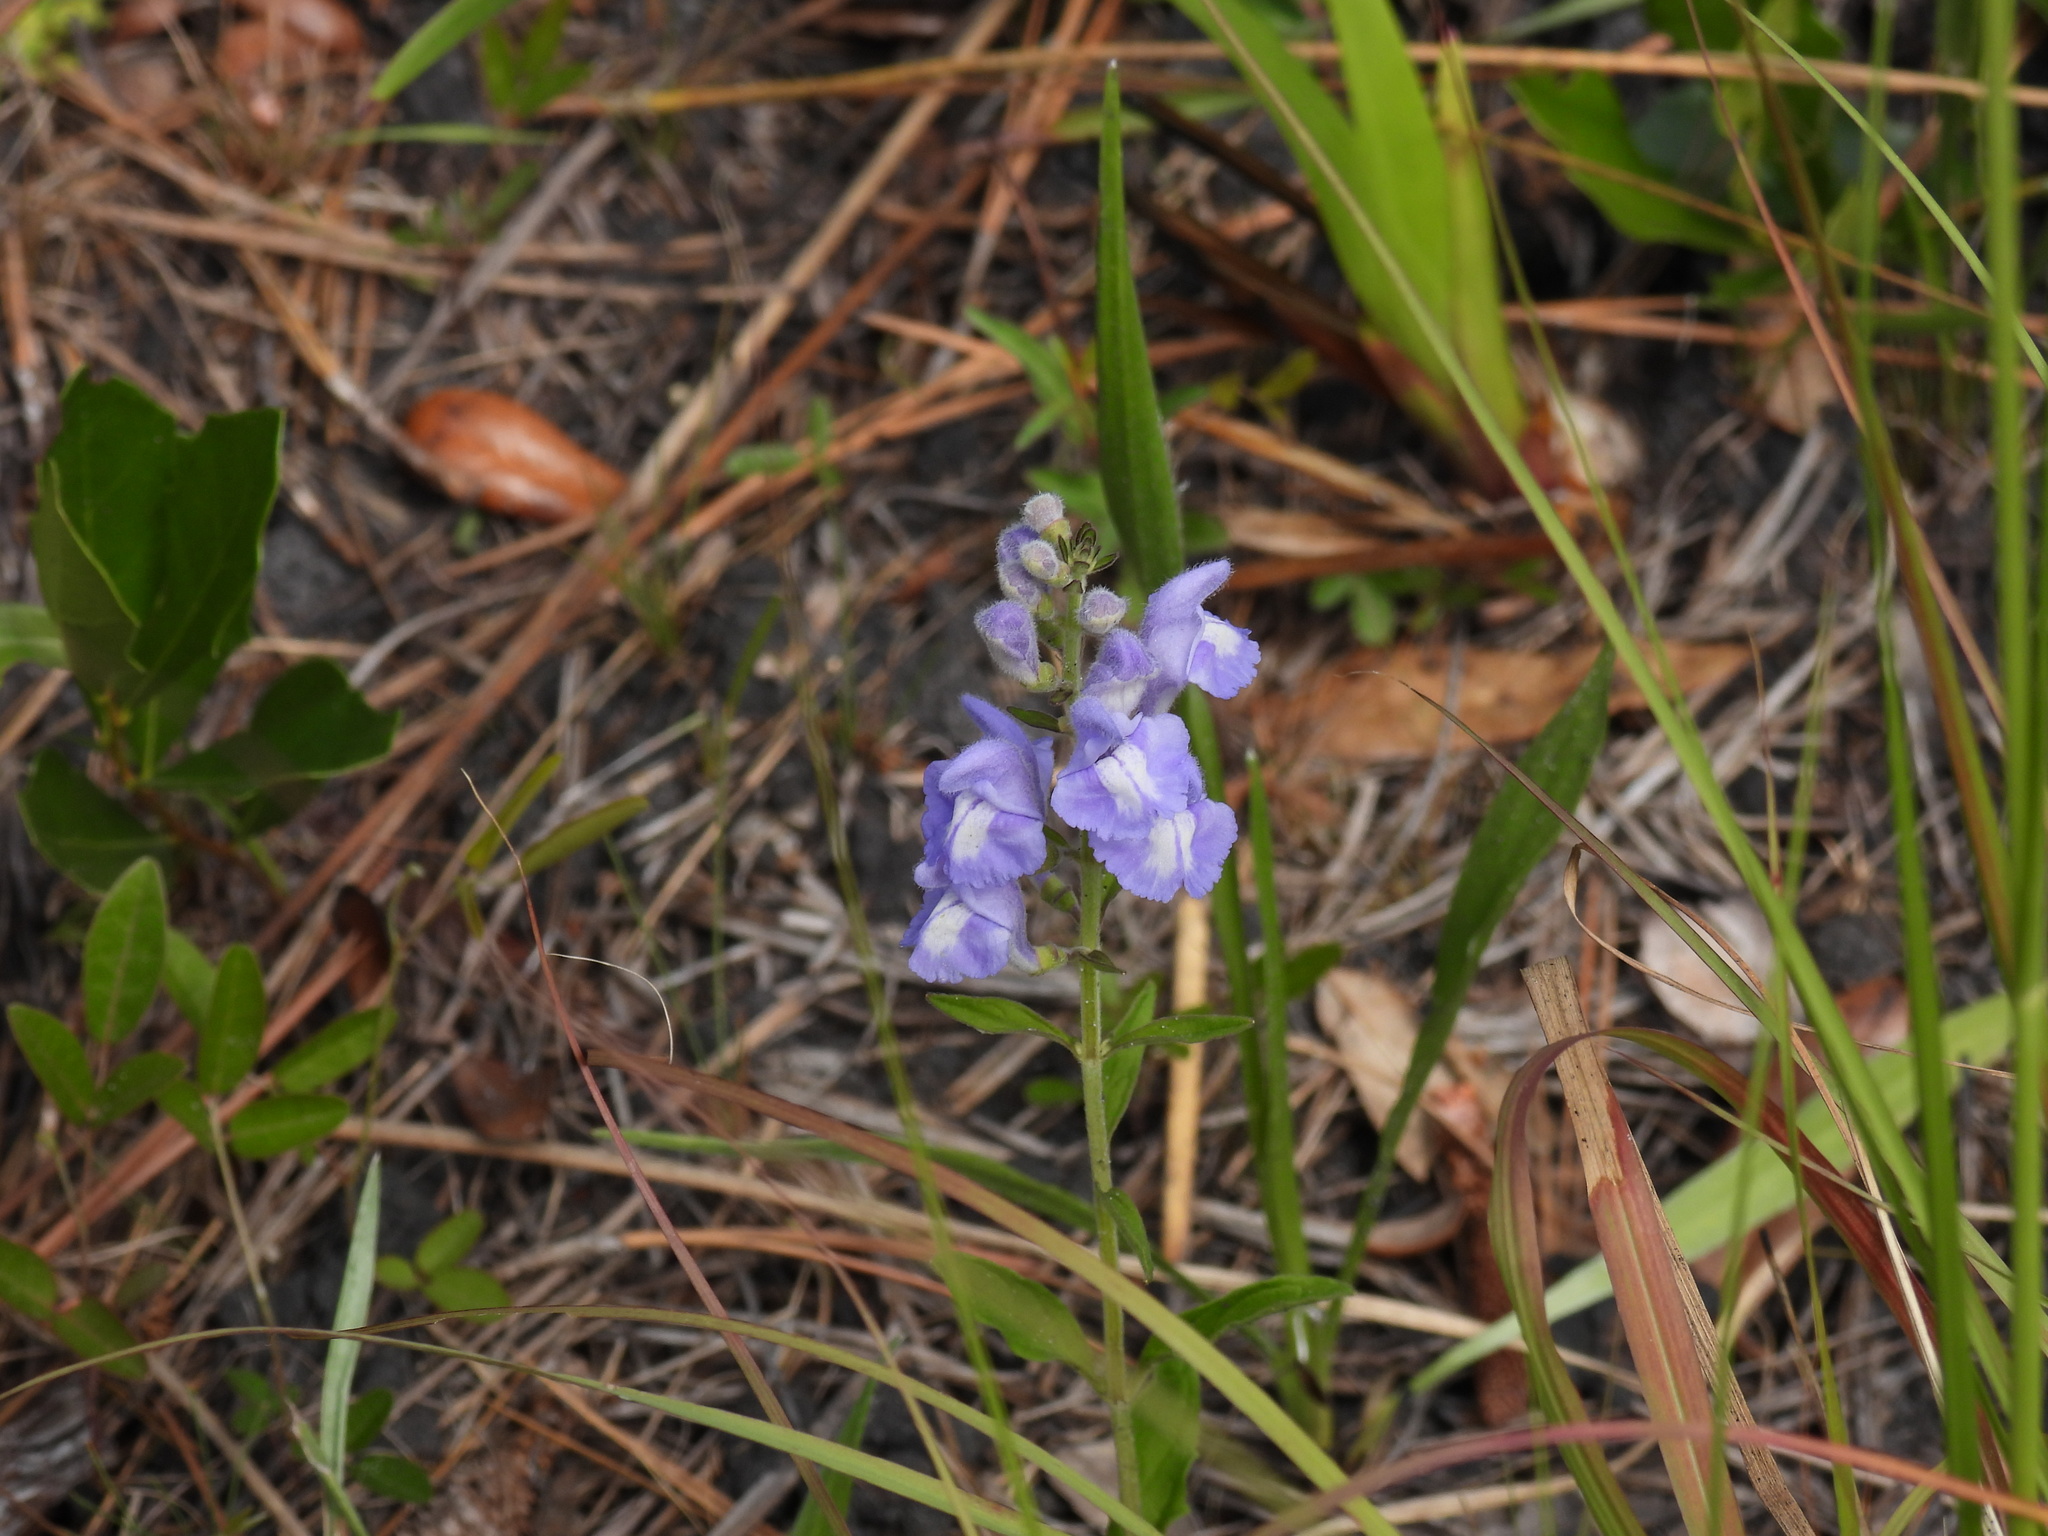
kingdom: Plantae
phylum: Tracheophyta
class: Magnoliopsida
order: Lamiales
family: Lamiaceae
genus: Scutellaria
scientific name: Scutellaria integrifolia
